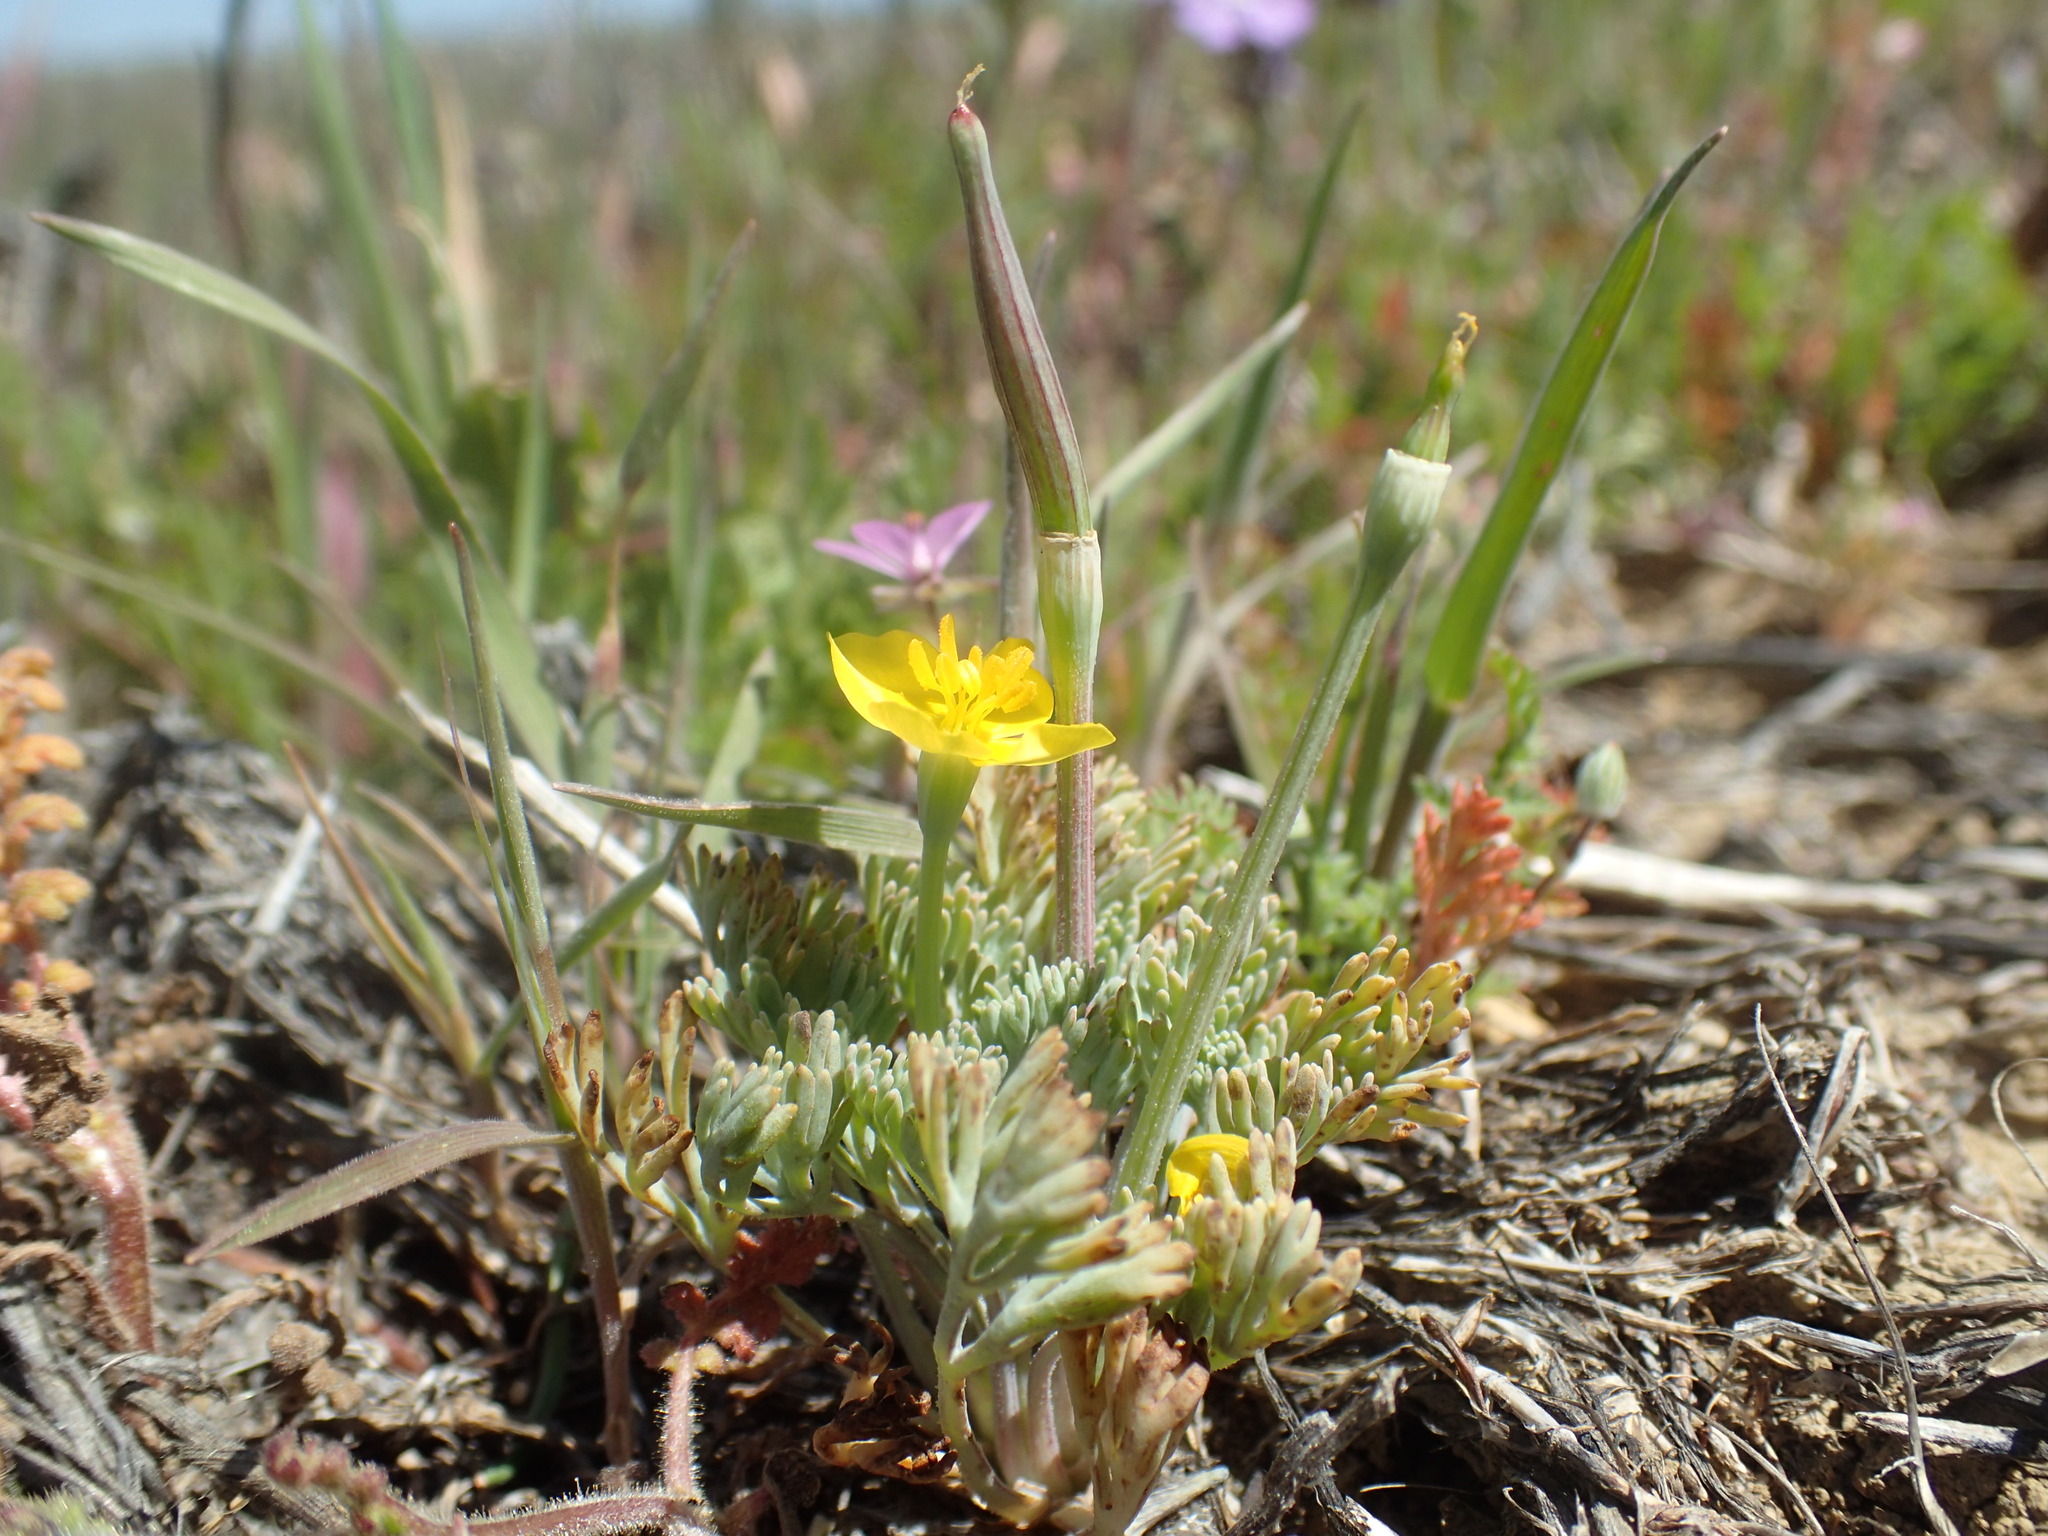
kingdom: Plantae
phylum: Tracheophyta
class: Magnoliopsida
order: Ranunculales
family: Papaveraceae
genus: Eschscholzia
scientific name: Eschscholzia rhombipetala
